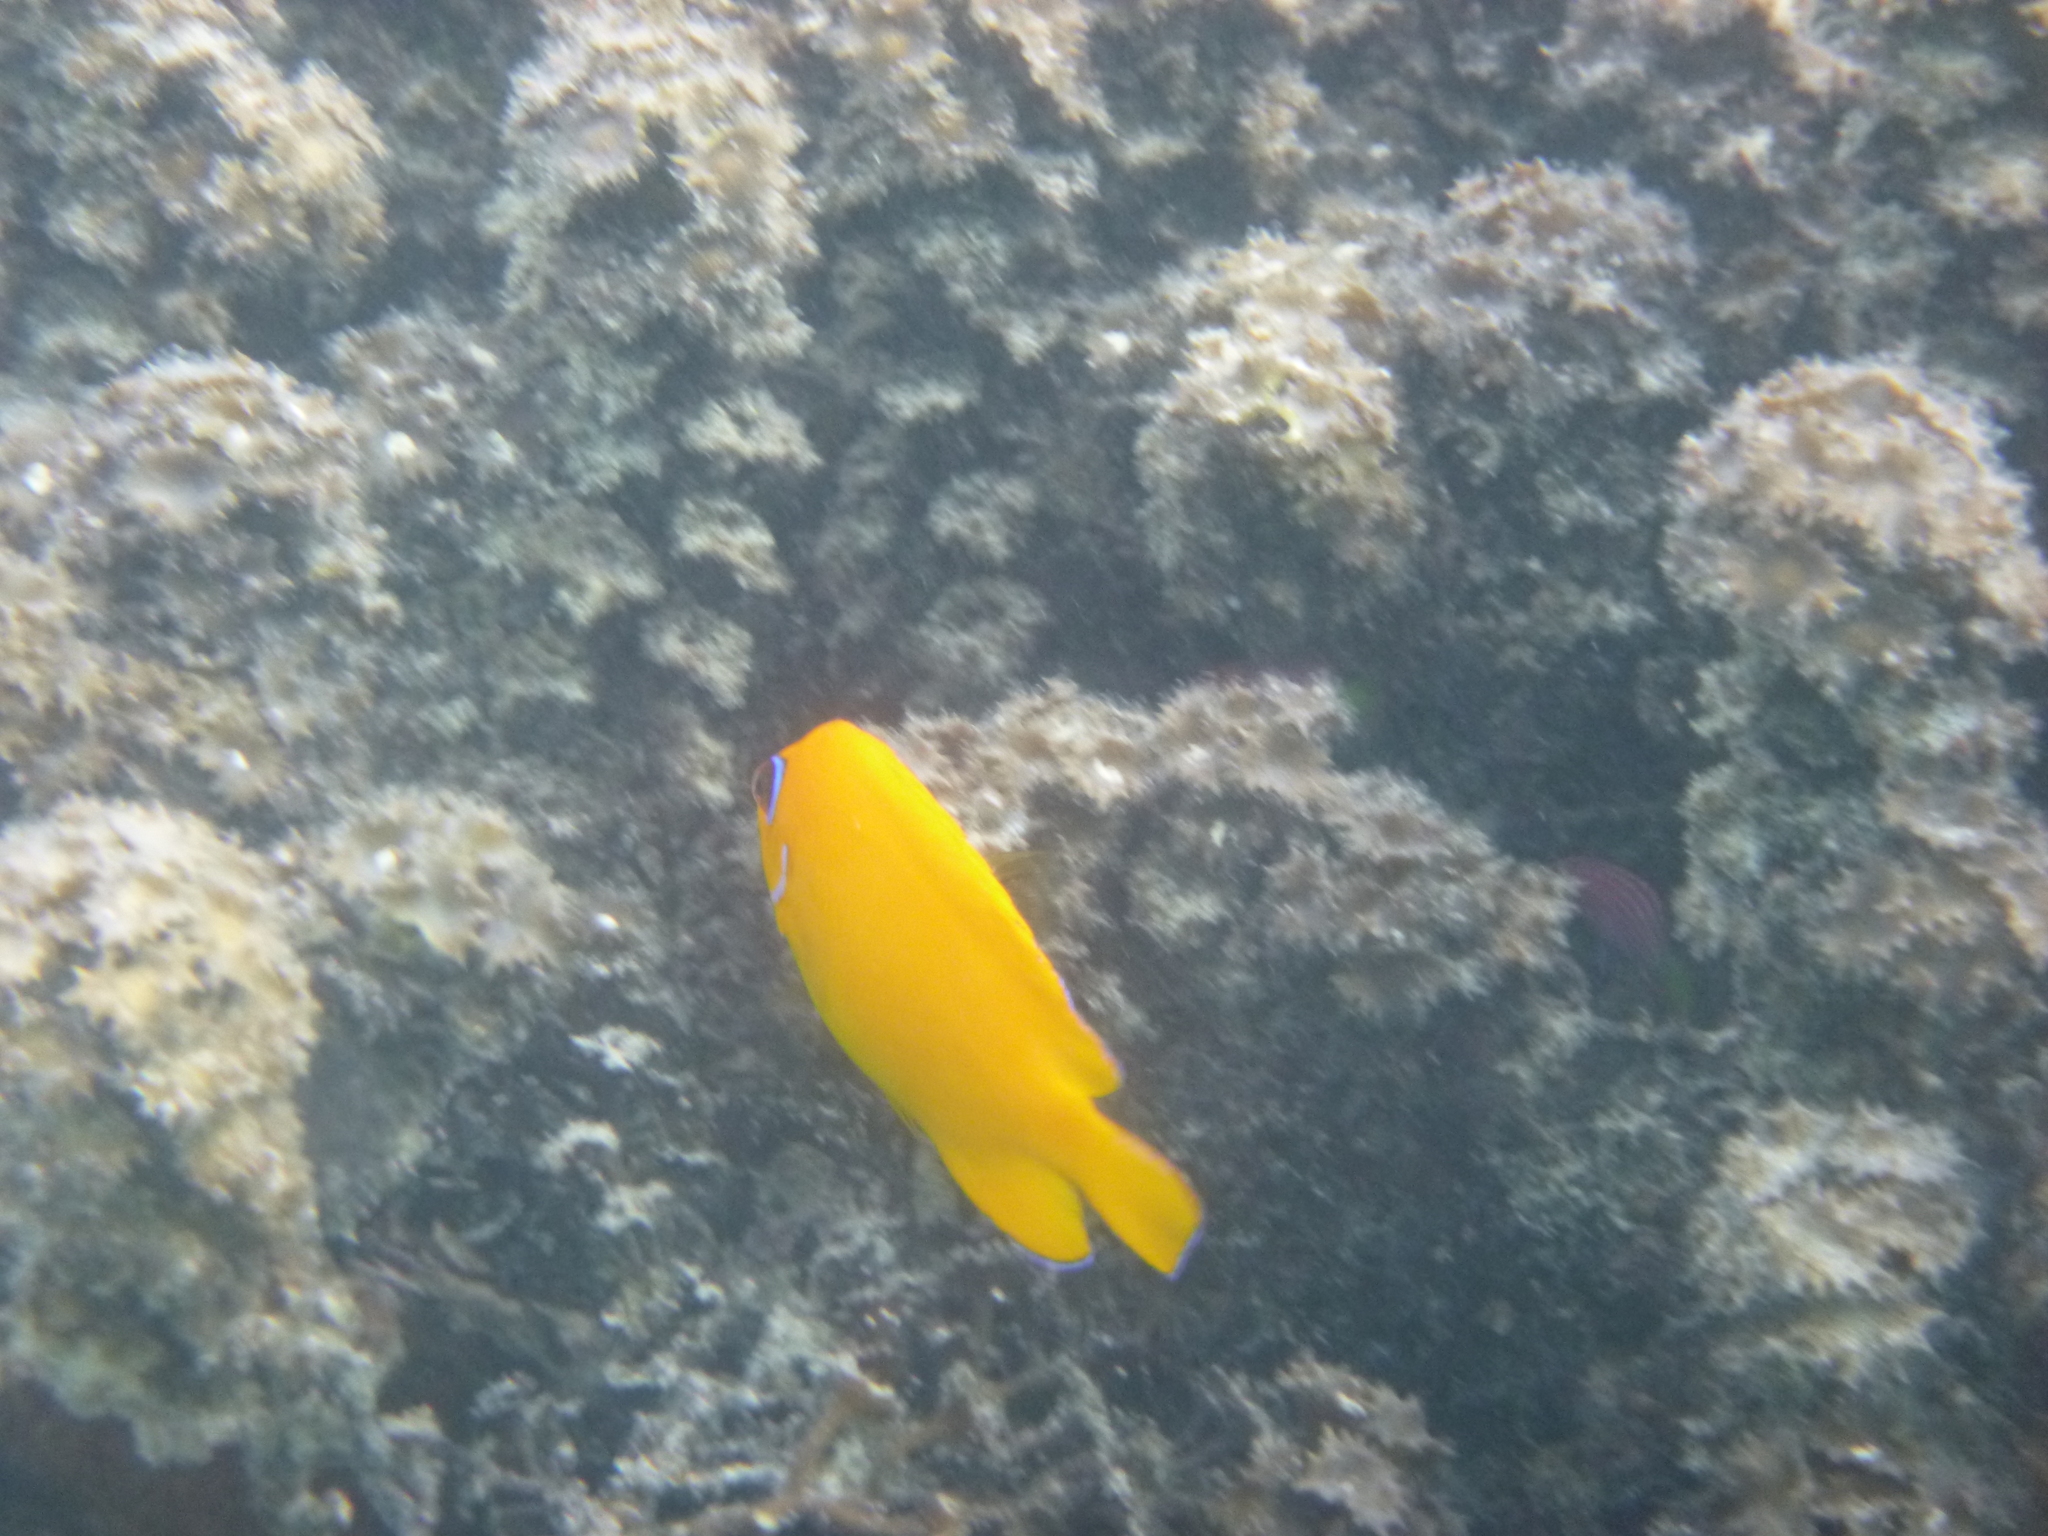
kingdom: Animalia
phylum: Chordata
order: Perciformes
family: Pomacanthidae
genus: Centropyge
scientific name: Centropyge flavissima
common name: Lemonpeel angelfish
